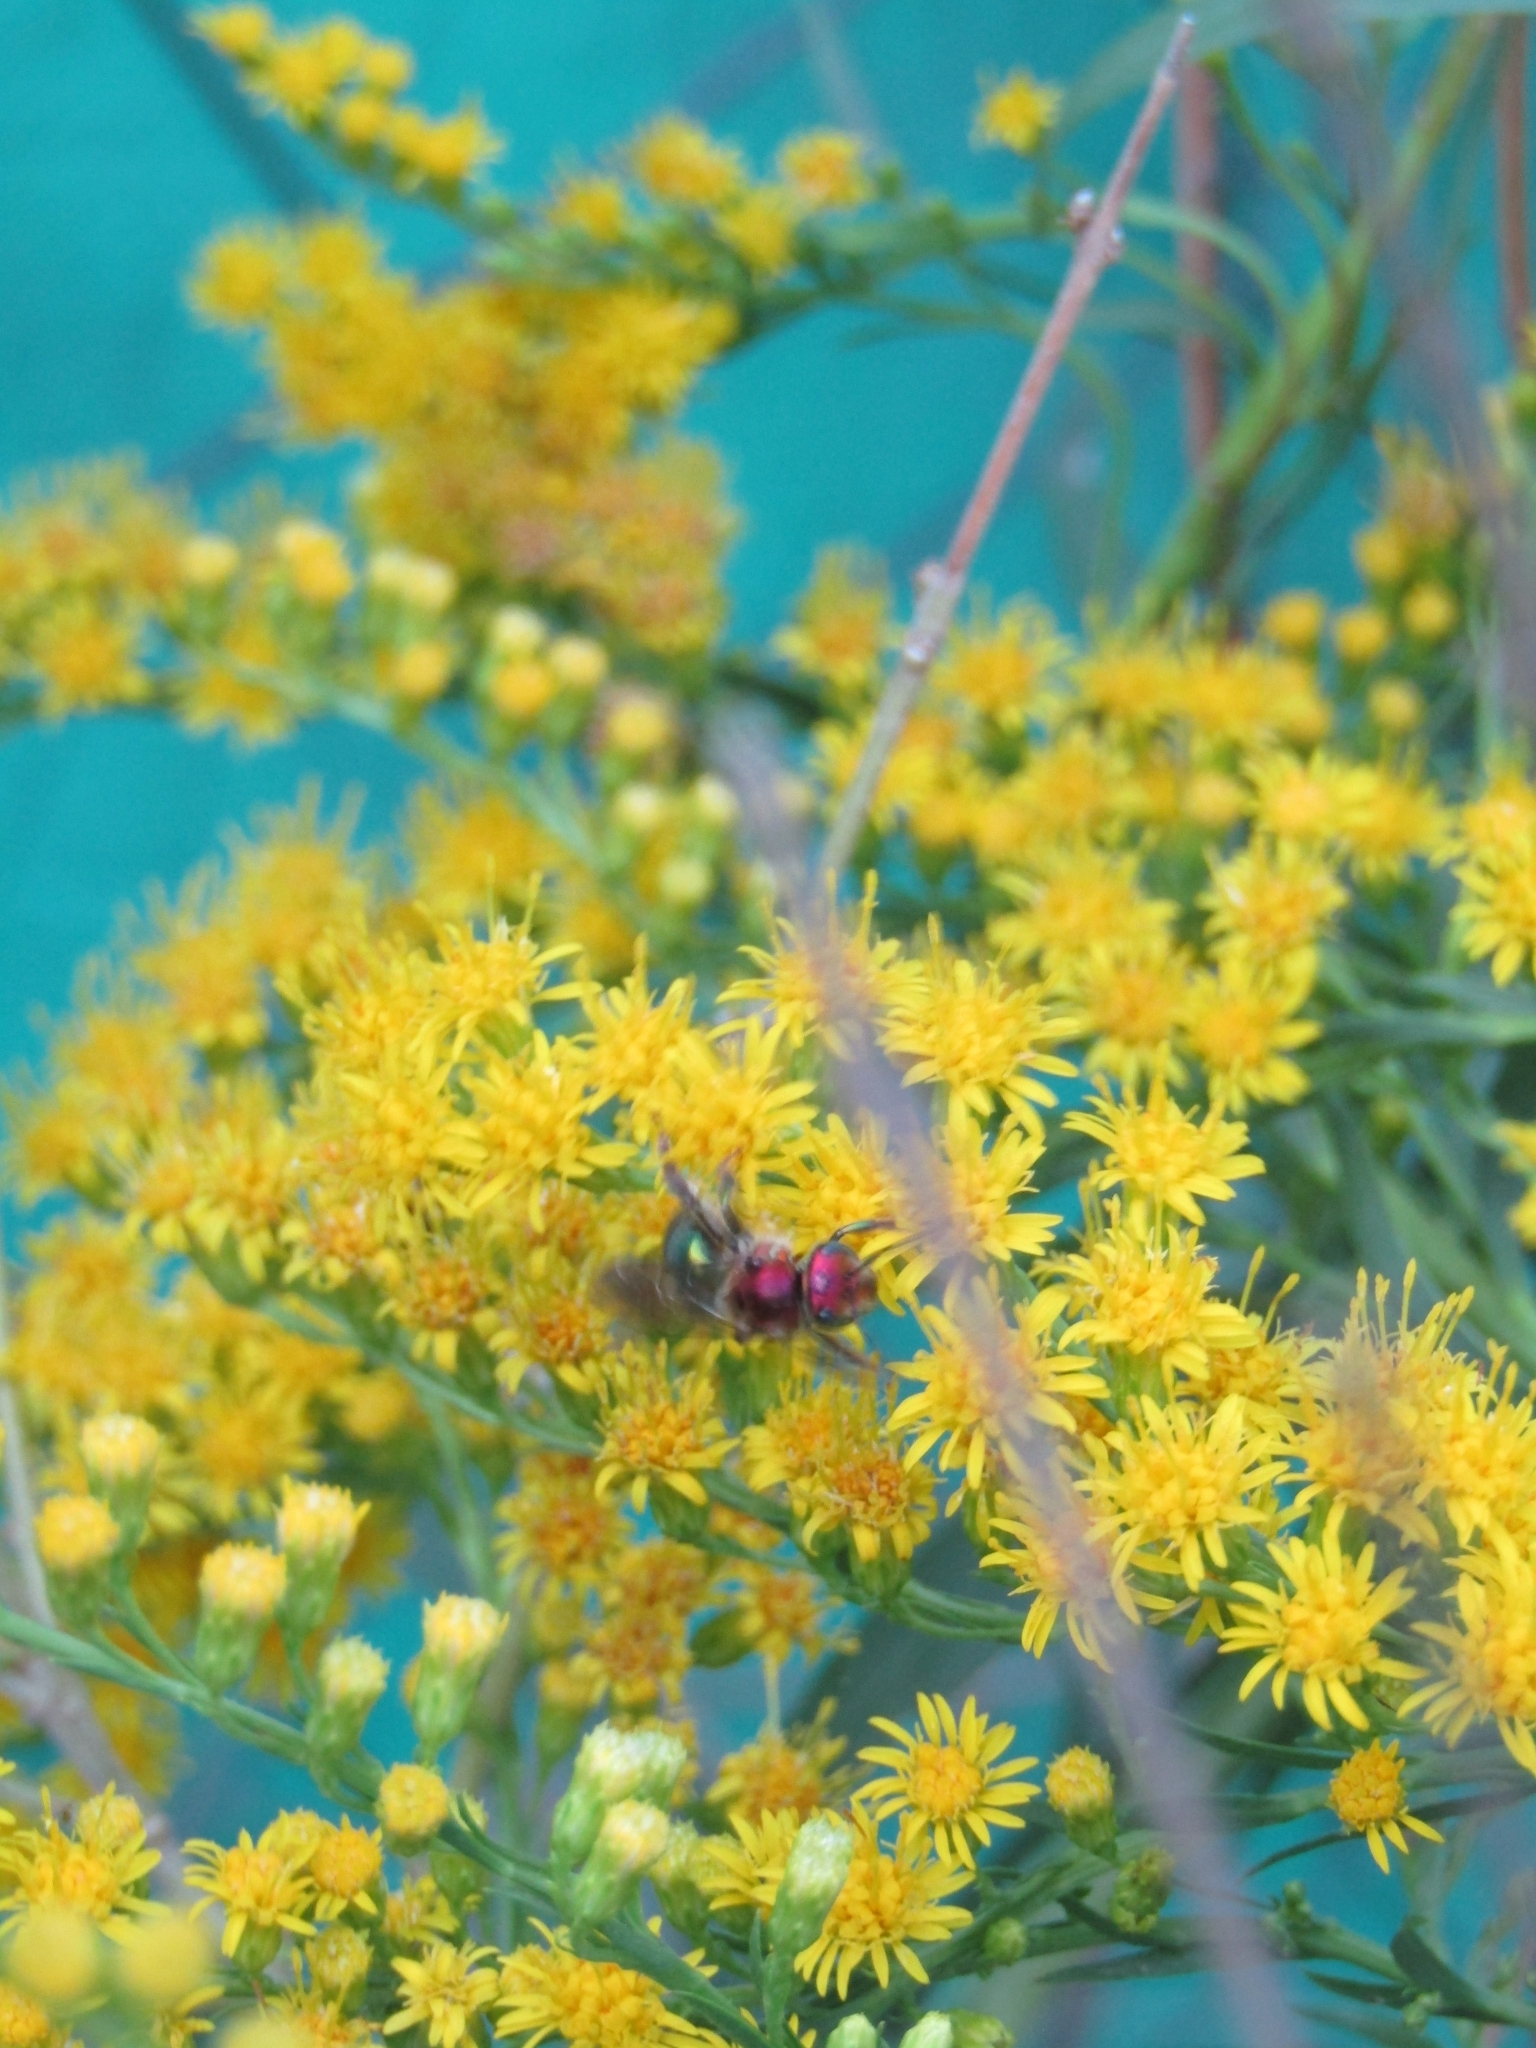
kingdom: Animalia
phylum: Arthropoda
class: Insecta
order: Hymenoptera
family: Halictidae
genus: Augochloropsis
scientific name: Augochloropsis tupacamaru
